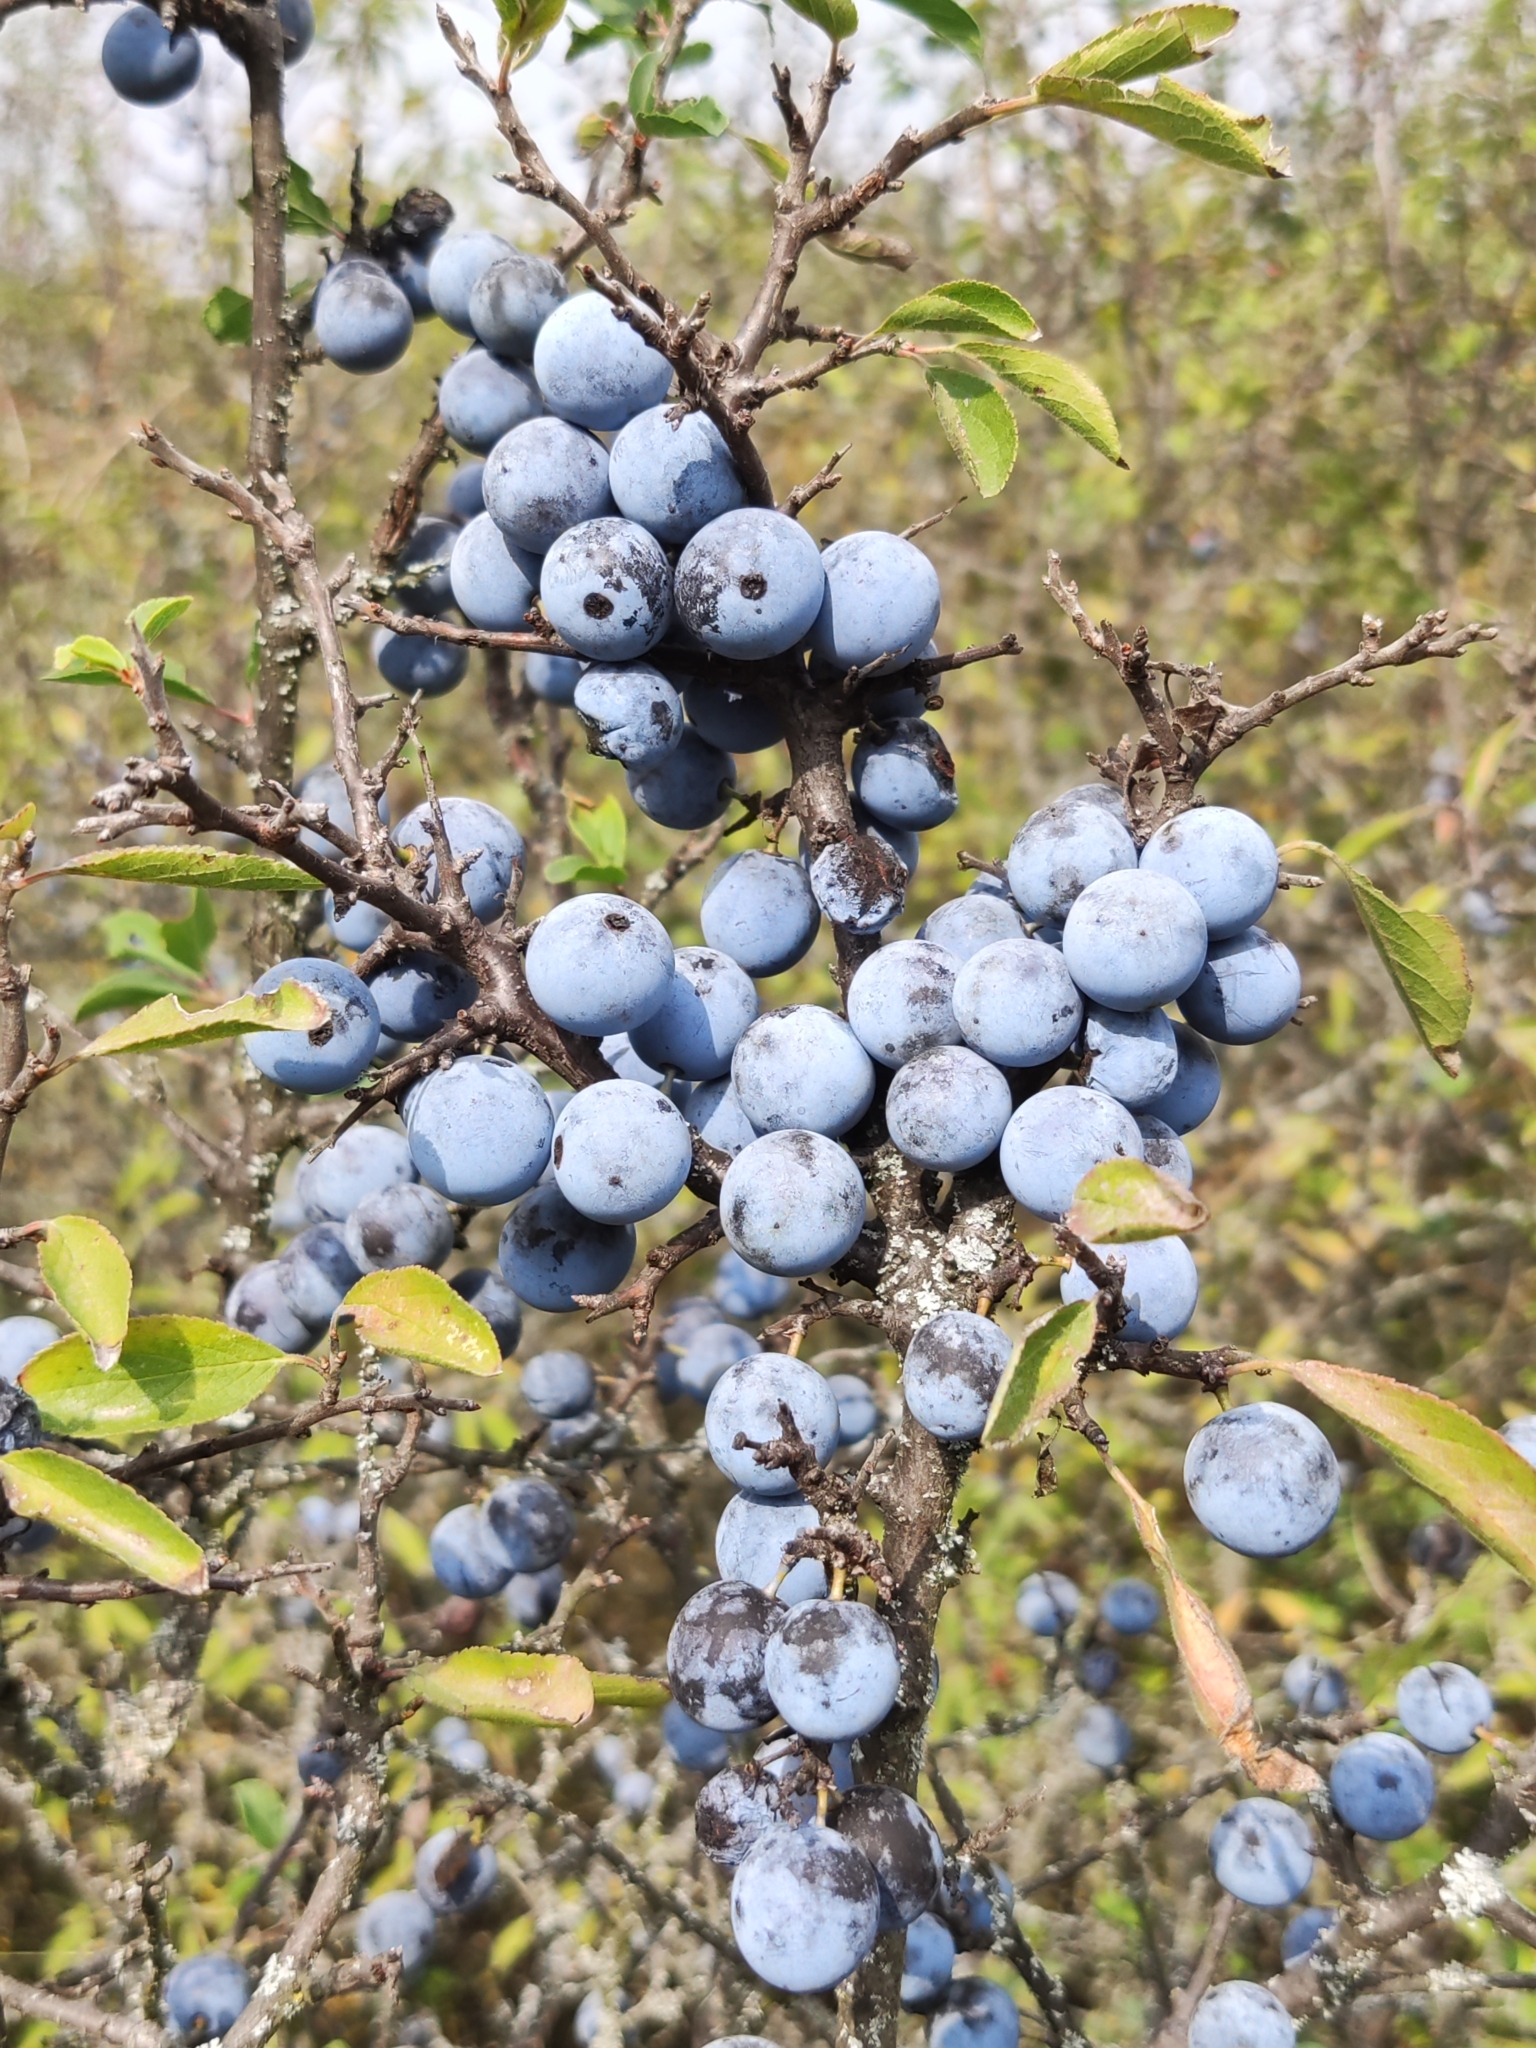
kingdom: Plantae
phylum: Tracheophyta
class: Magnoliopsida
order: Rosales
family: Rosaceae
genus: Prunus
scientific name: Prunus spinosa
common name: Blackthorn
